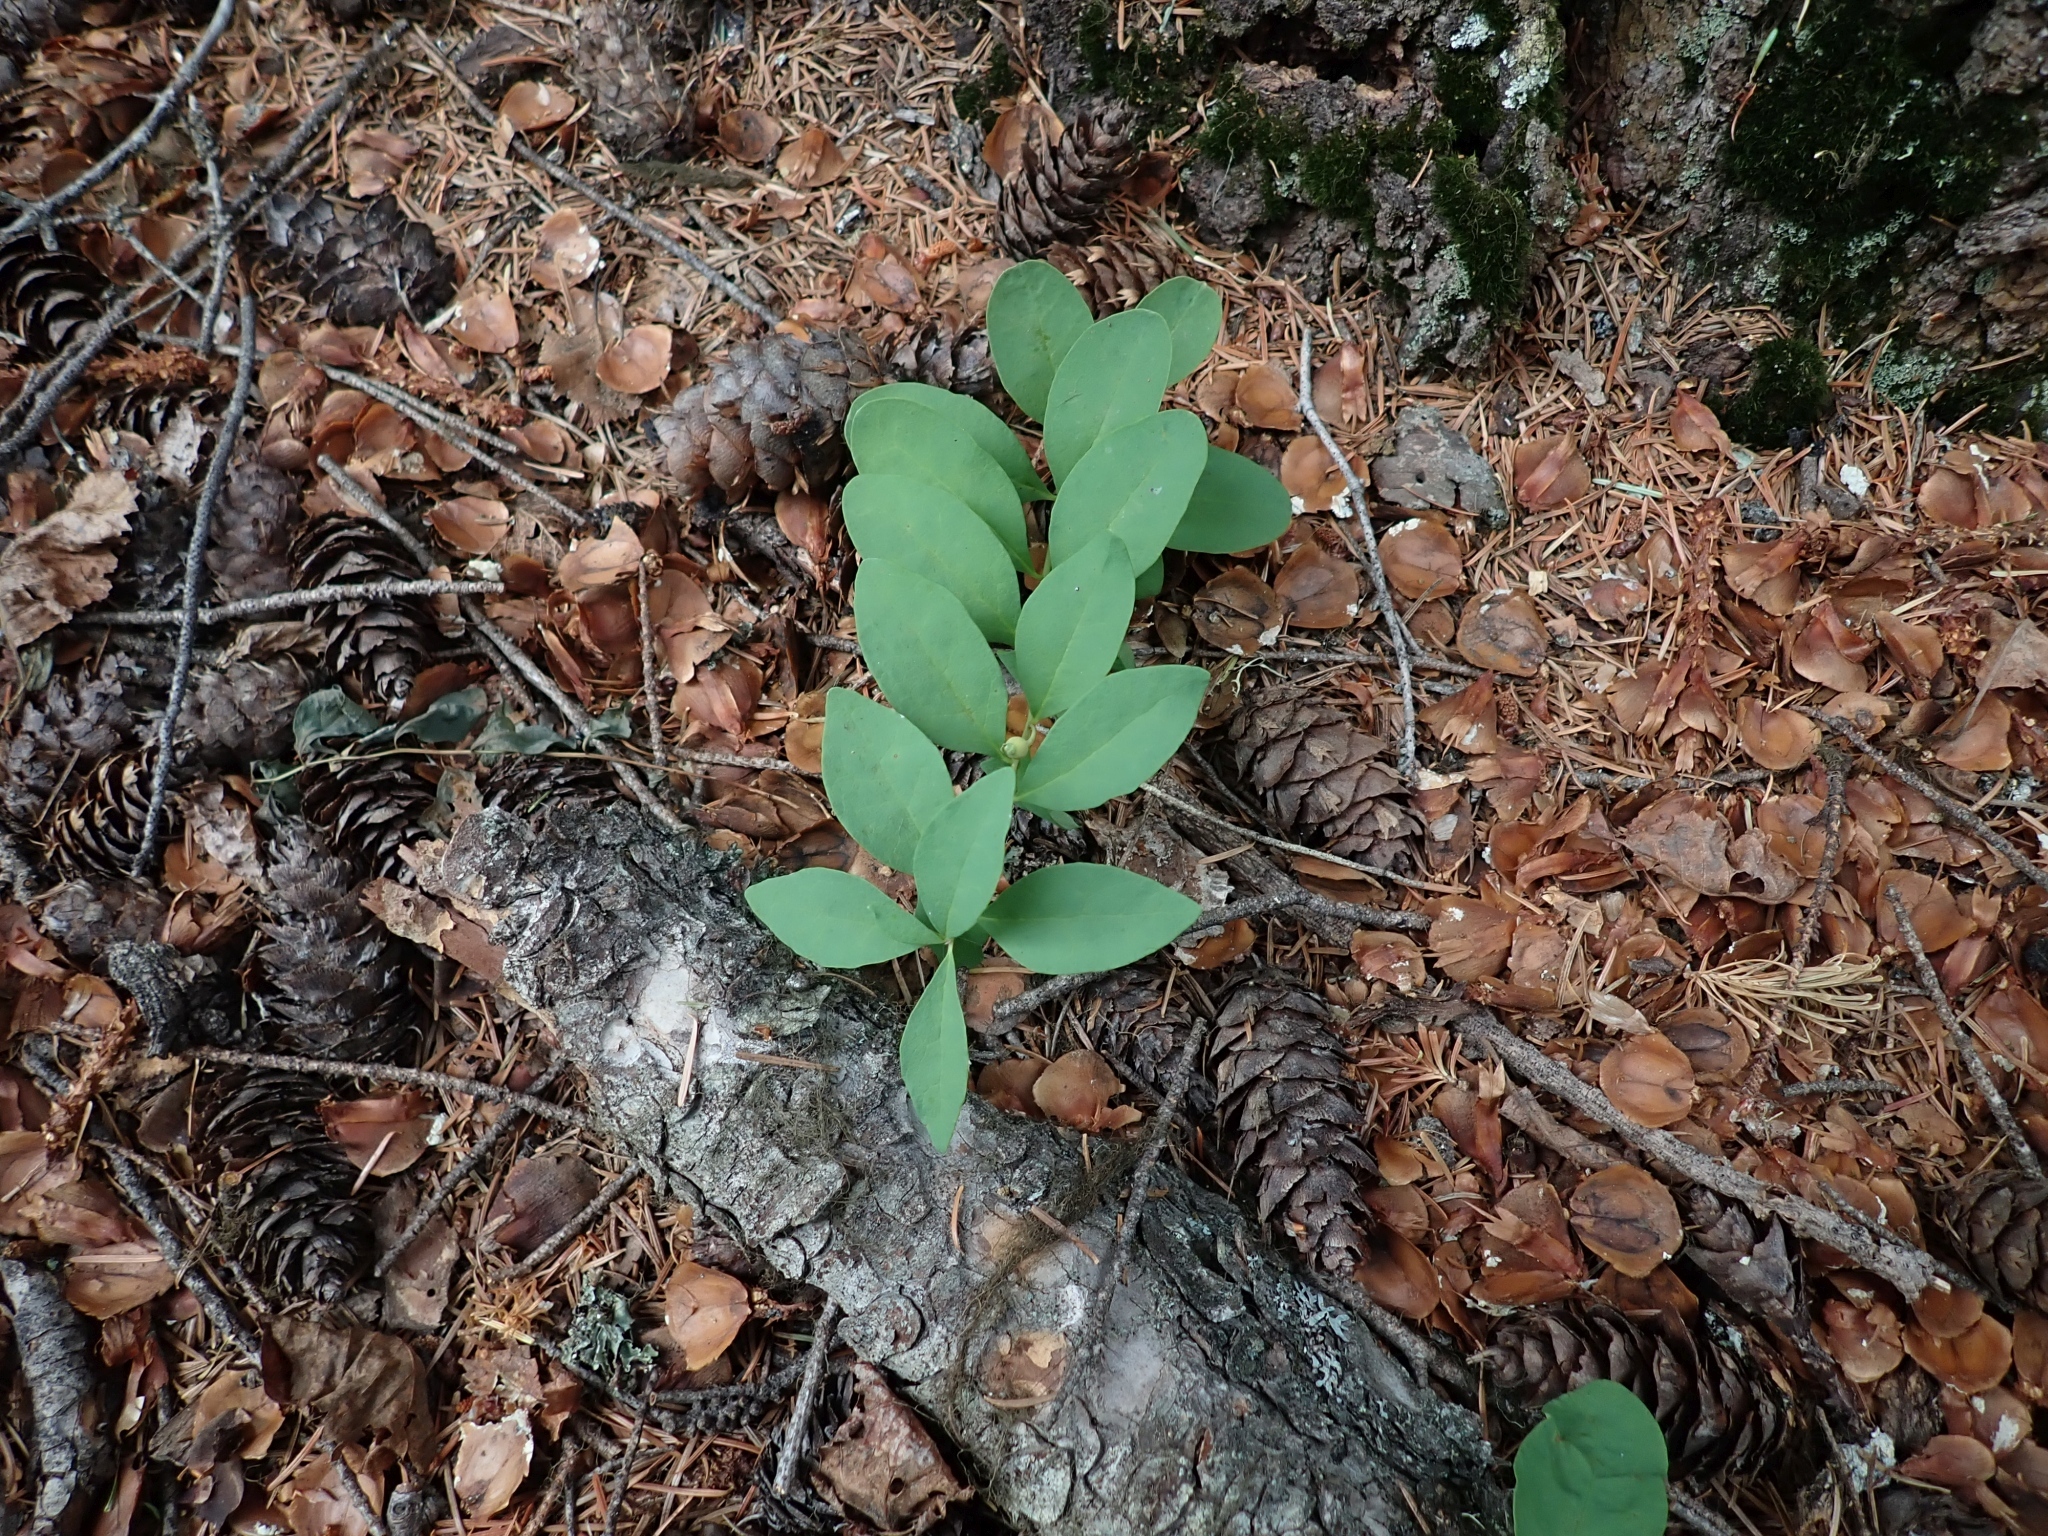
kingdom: Plantae
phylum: Tracheophyta
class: Magnoliopsida
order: Santalales
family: Comandraceae
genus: Geocaulon
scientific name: Geocaulon lividum
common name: Earthberry
